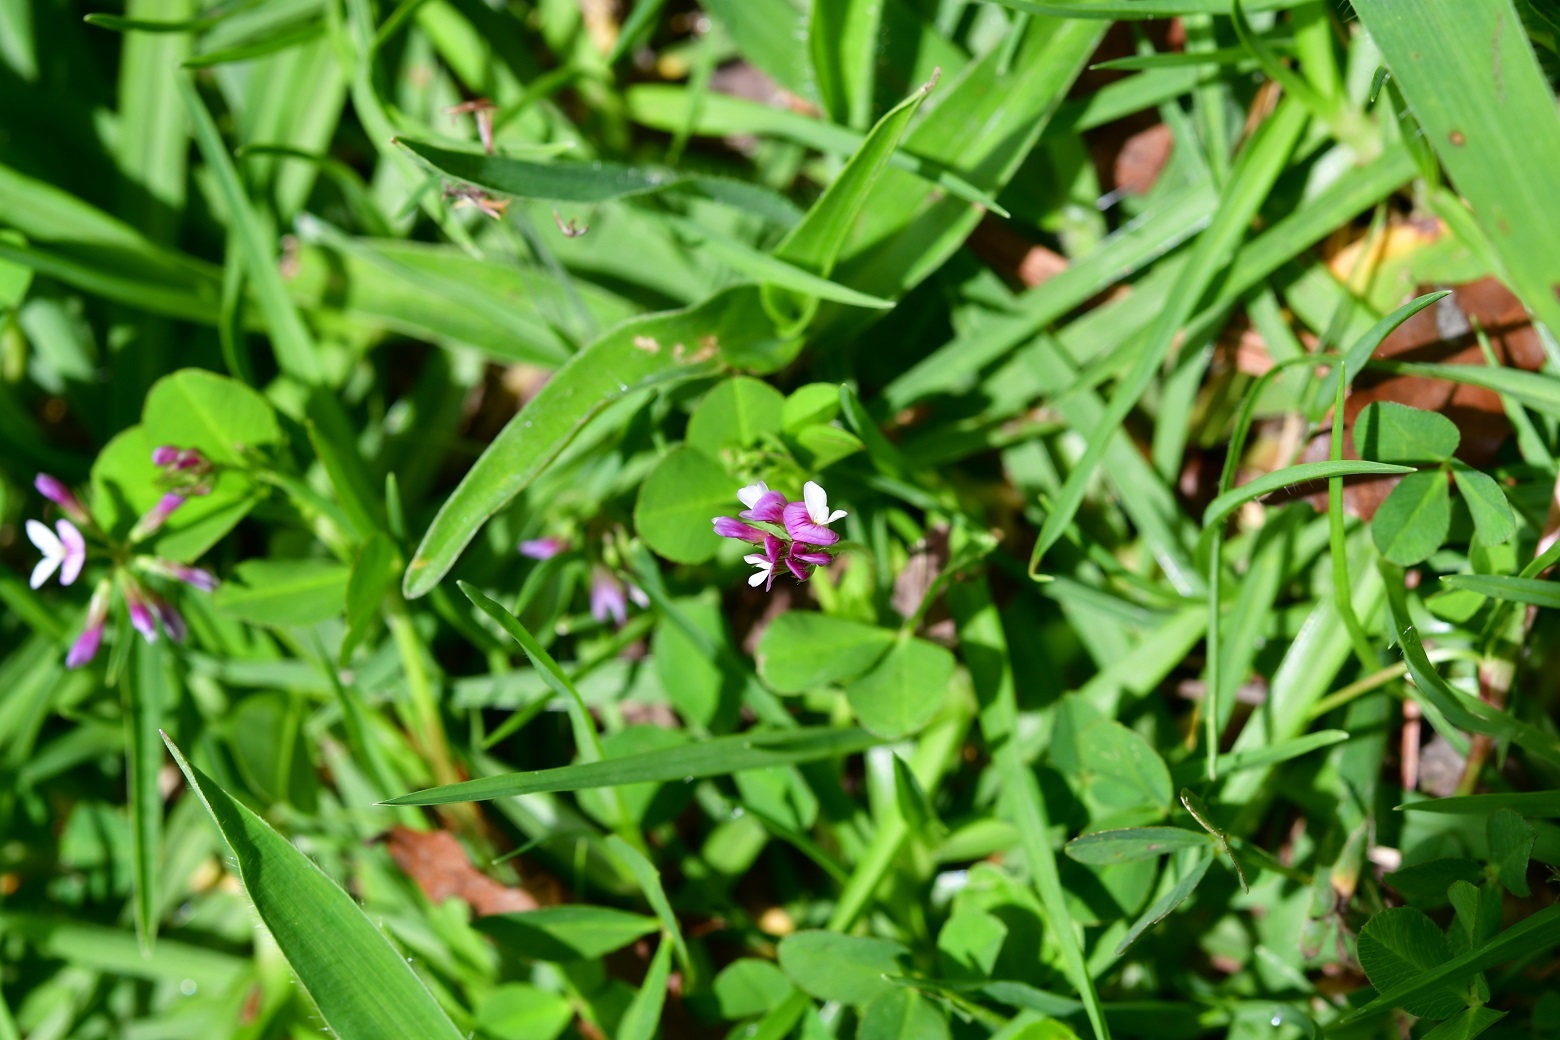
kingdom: Plantae
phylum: Tracheophyta
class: Magnoliopsida
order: Fabales
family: Fabaceae
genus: Trifolium
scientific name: Trifolium amabile
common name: Aztec clover
